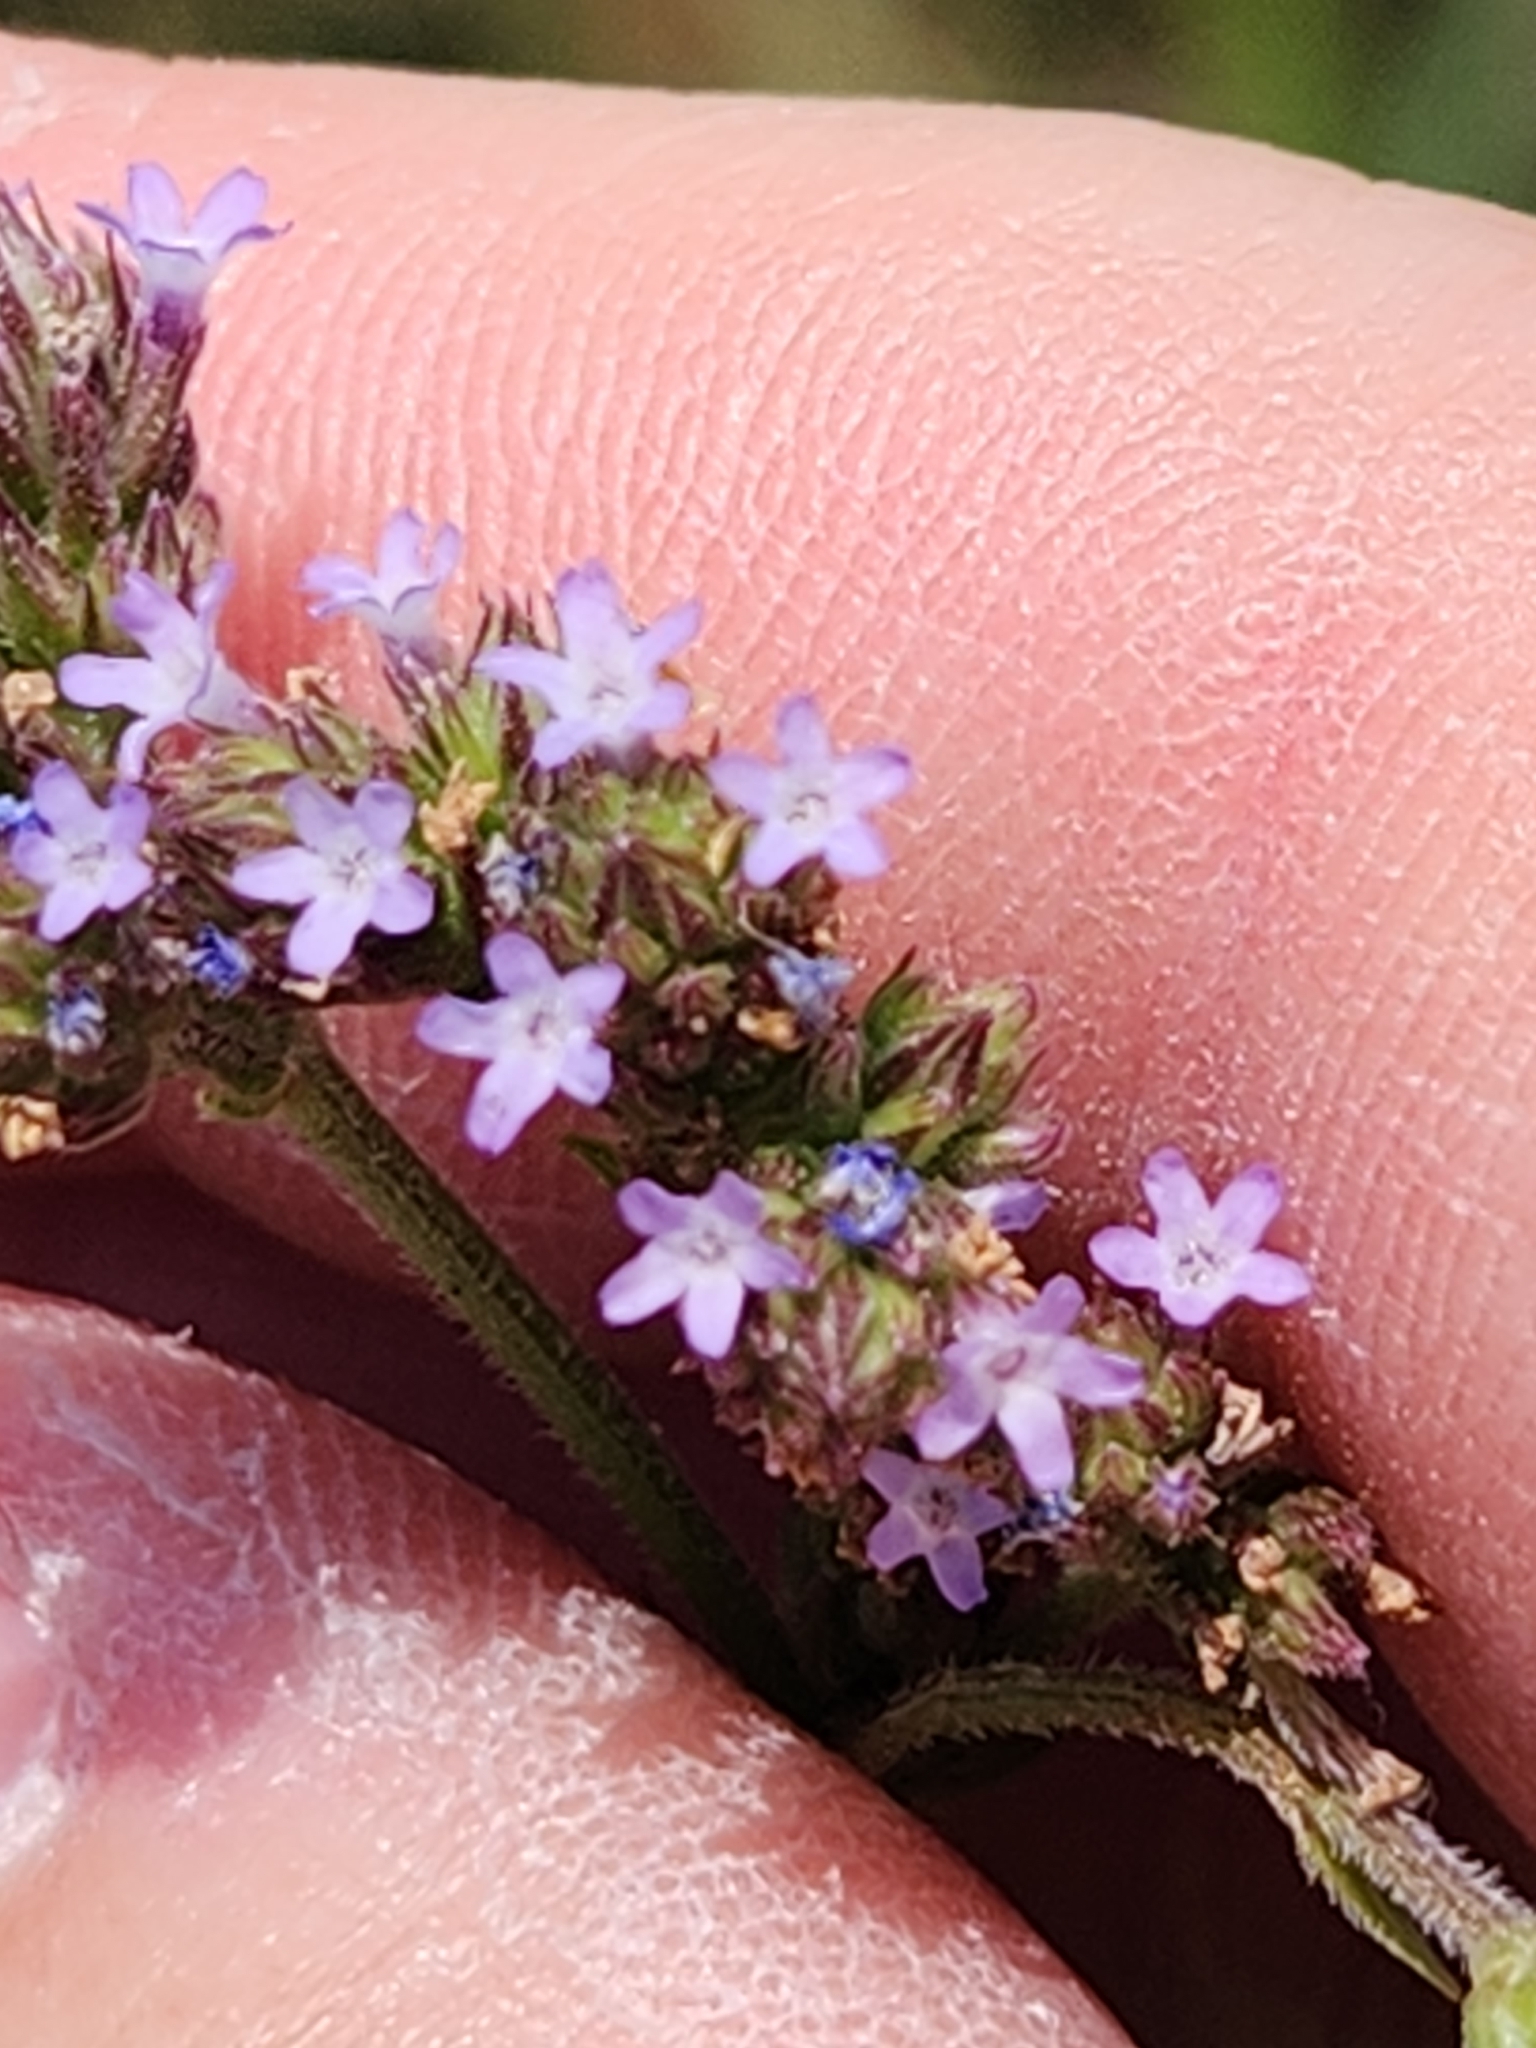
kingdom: Plantae
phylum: Tracheophyta
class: Magnoliopsida
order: Lamiales
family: Verbenaceae
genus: Verbena
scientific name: Verbena brasiliensis
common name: Brazilian vervain
